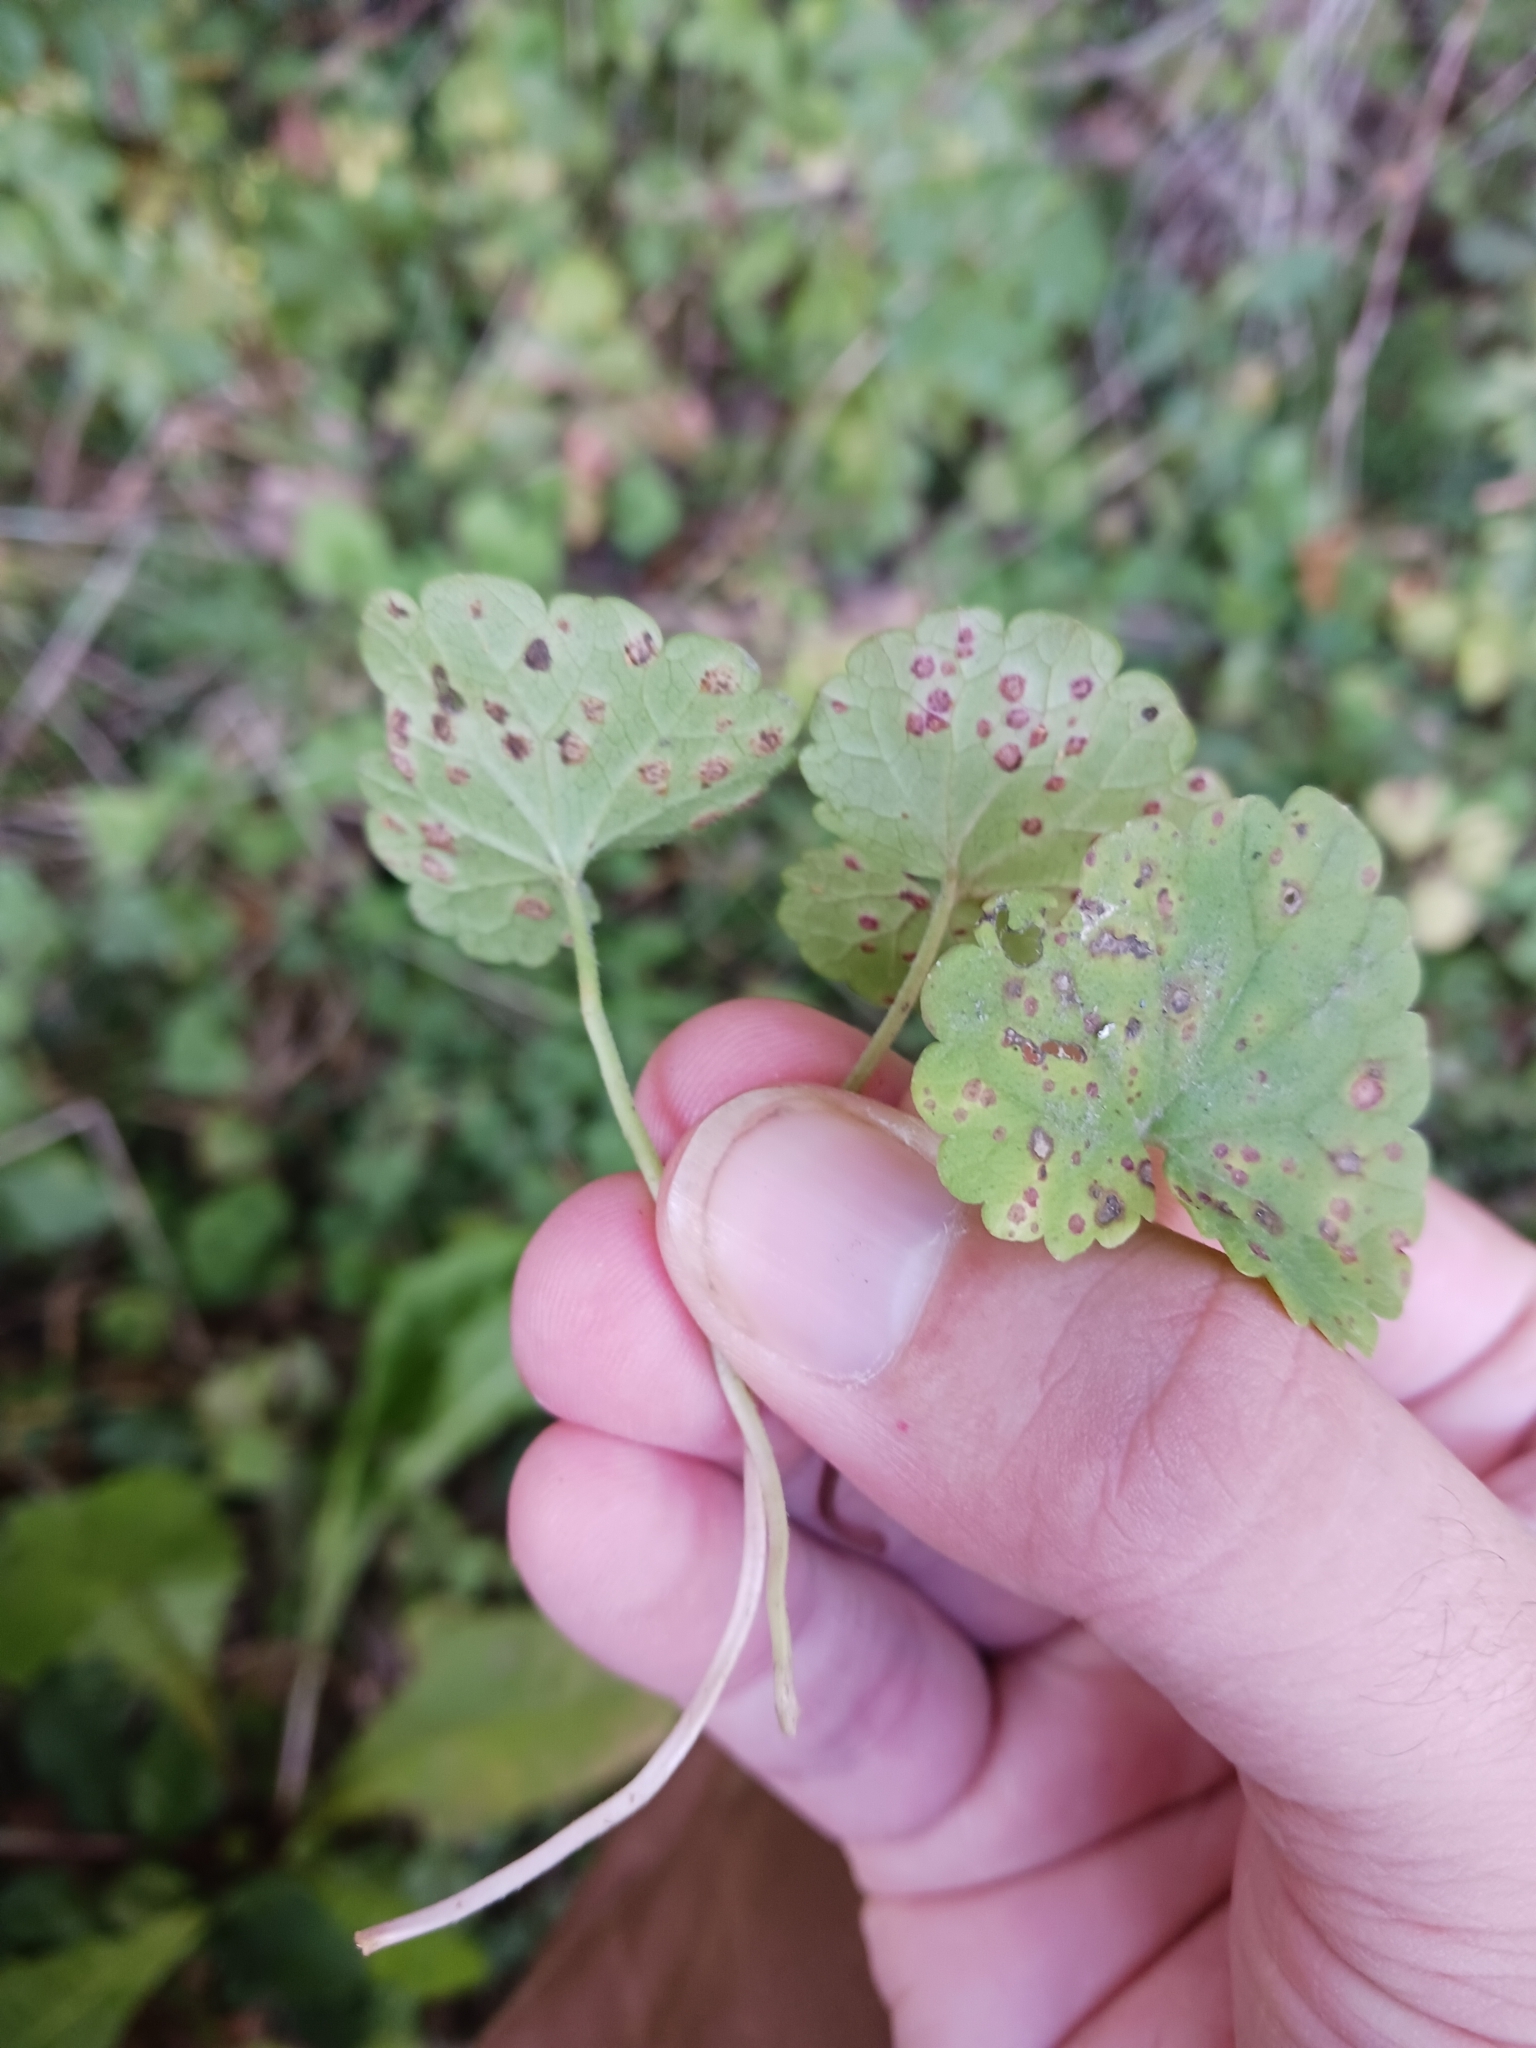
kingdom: Fungi
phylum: Basidiomycota
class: Pucciniomycetes
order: Pucciniales
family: Pucciniaceae
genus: Puccinia
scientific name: Puccinia glechomatis
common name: Ground ivy rust
